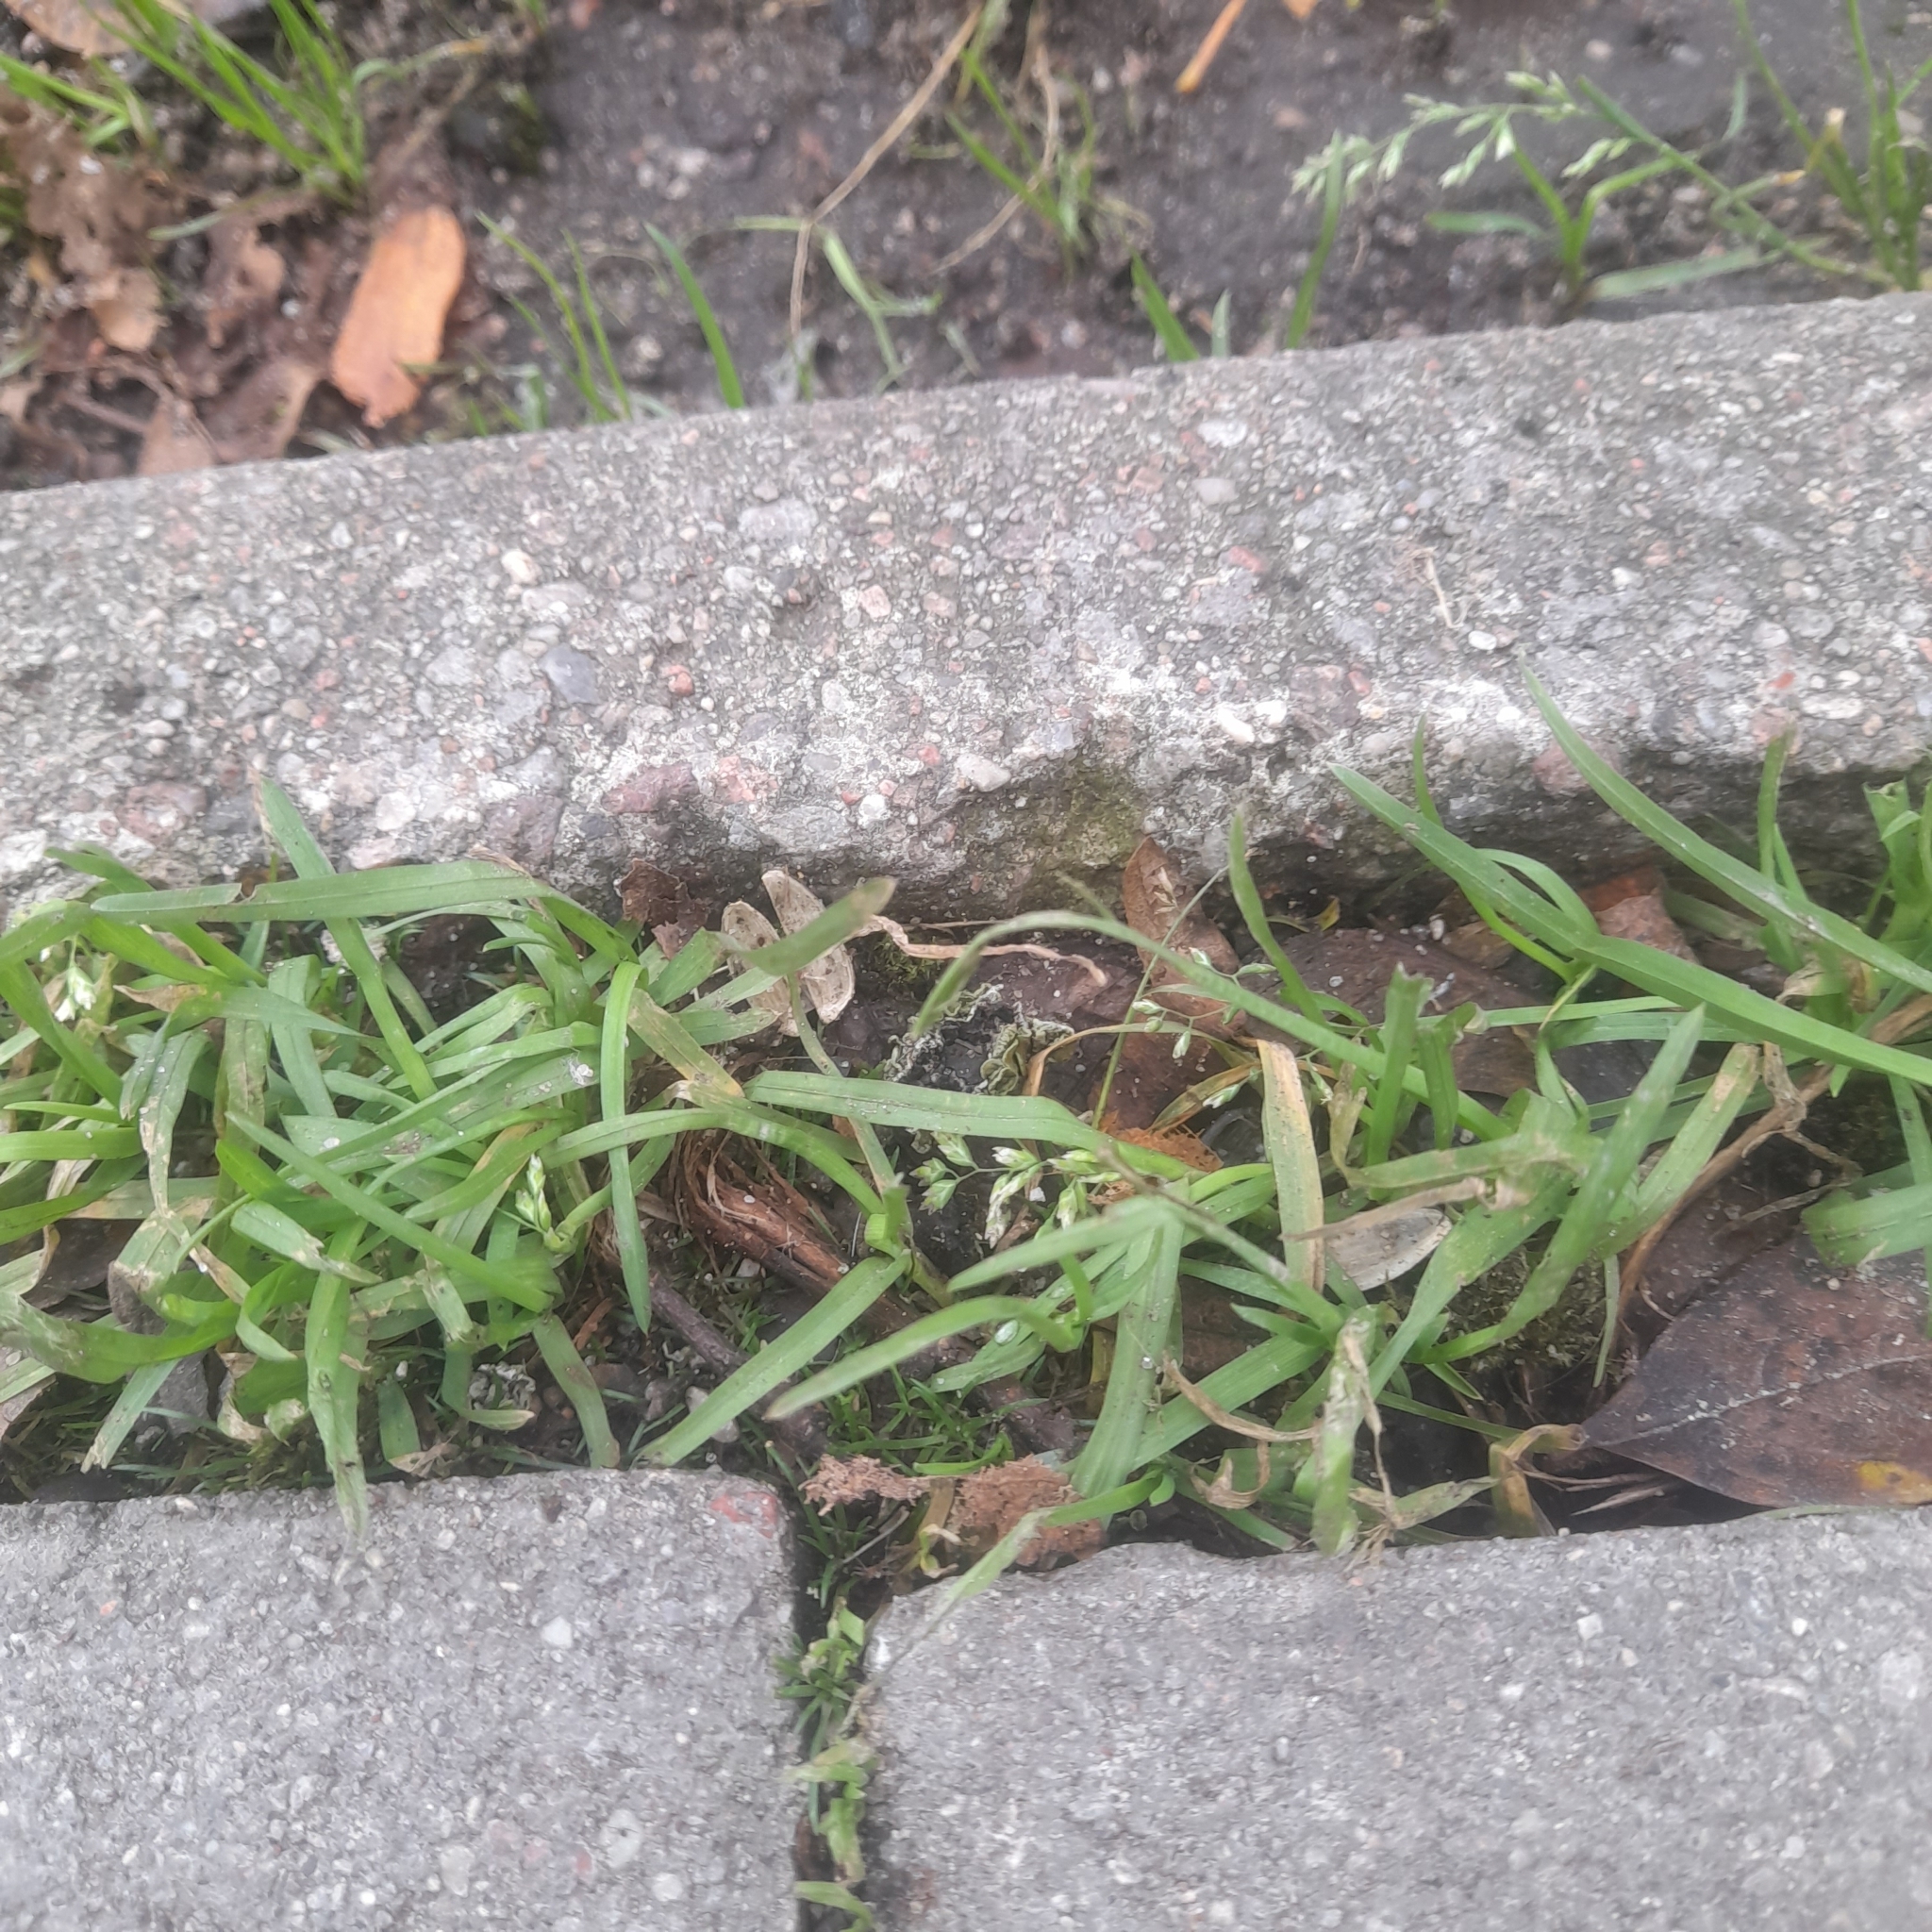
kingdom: Plantae
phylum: Tracheophyta
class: Liliopsida
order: Poales
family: Poaceae
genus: Poa
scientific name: Poa annua
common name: Annual bluegrass
